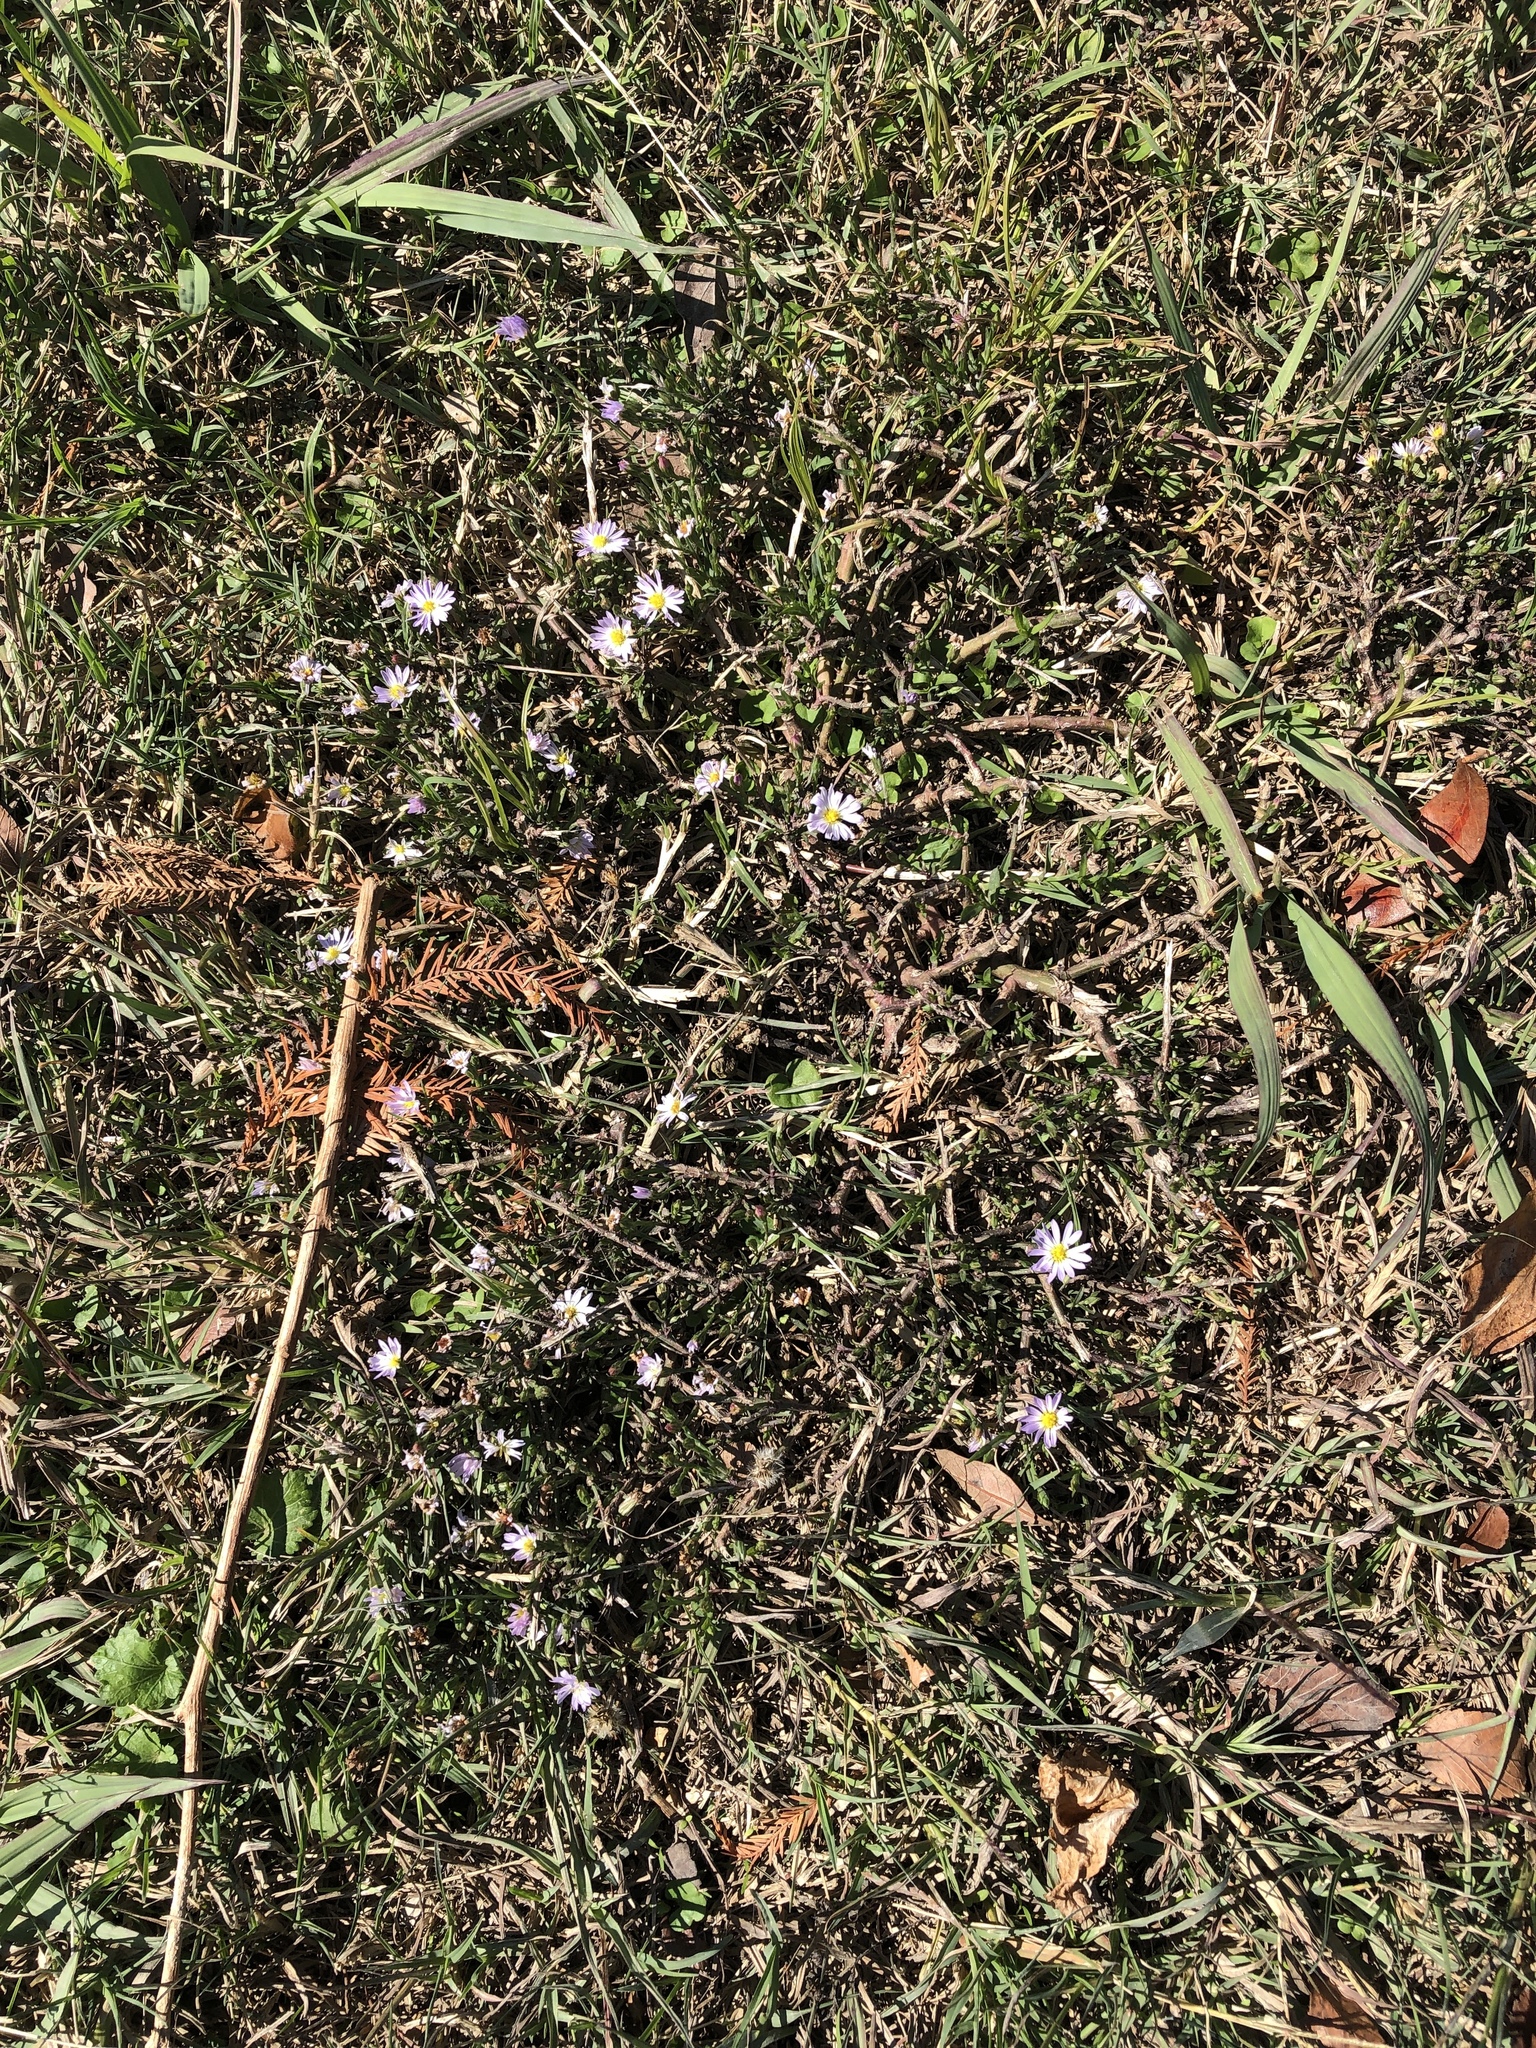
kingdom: Plantae
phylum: Tracheophyta
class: Magnoliopsida
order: Asterales
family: Asteraceae
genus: Symphyotrichum
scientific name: Symphyotrichum divaricatum
